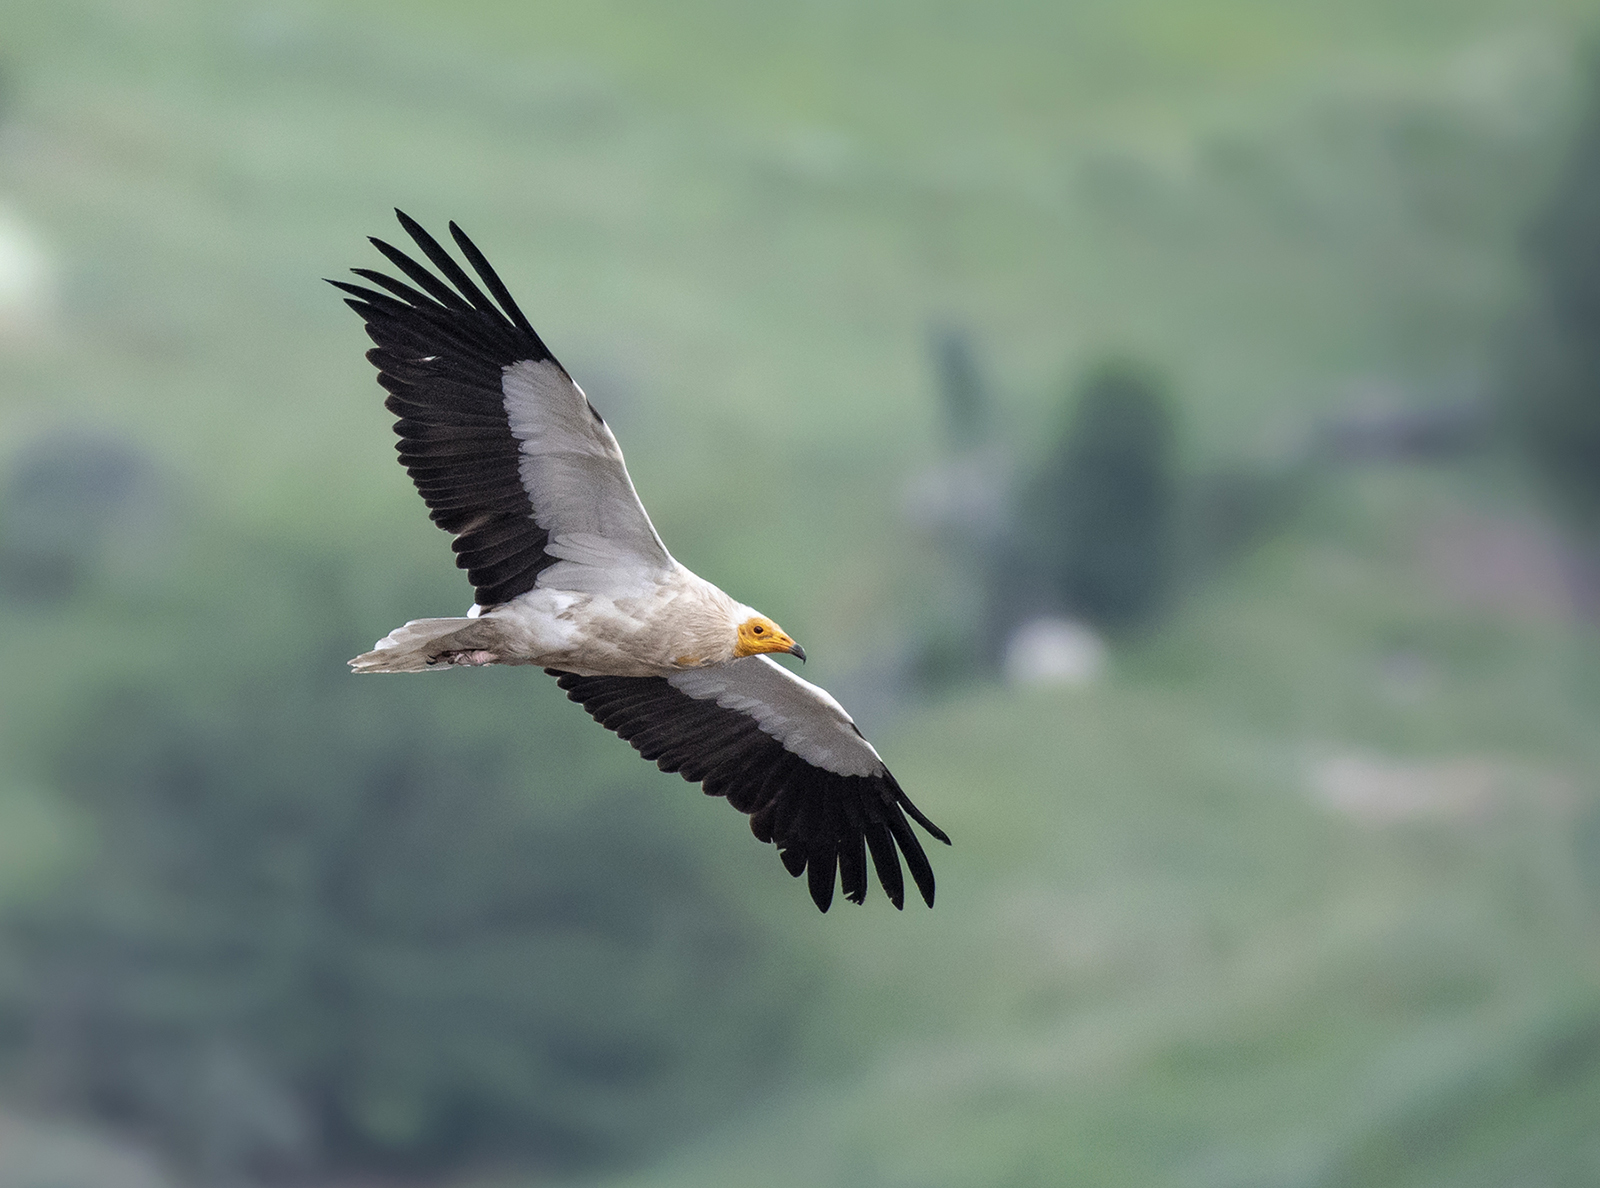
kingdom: Animalia
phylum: Chordata
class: Aves
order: Accipitriformes
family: Accipitridae
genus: Neophron
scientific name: Neophron percnopterus
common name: Egyptian vulture
